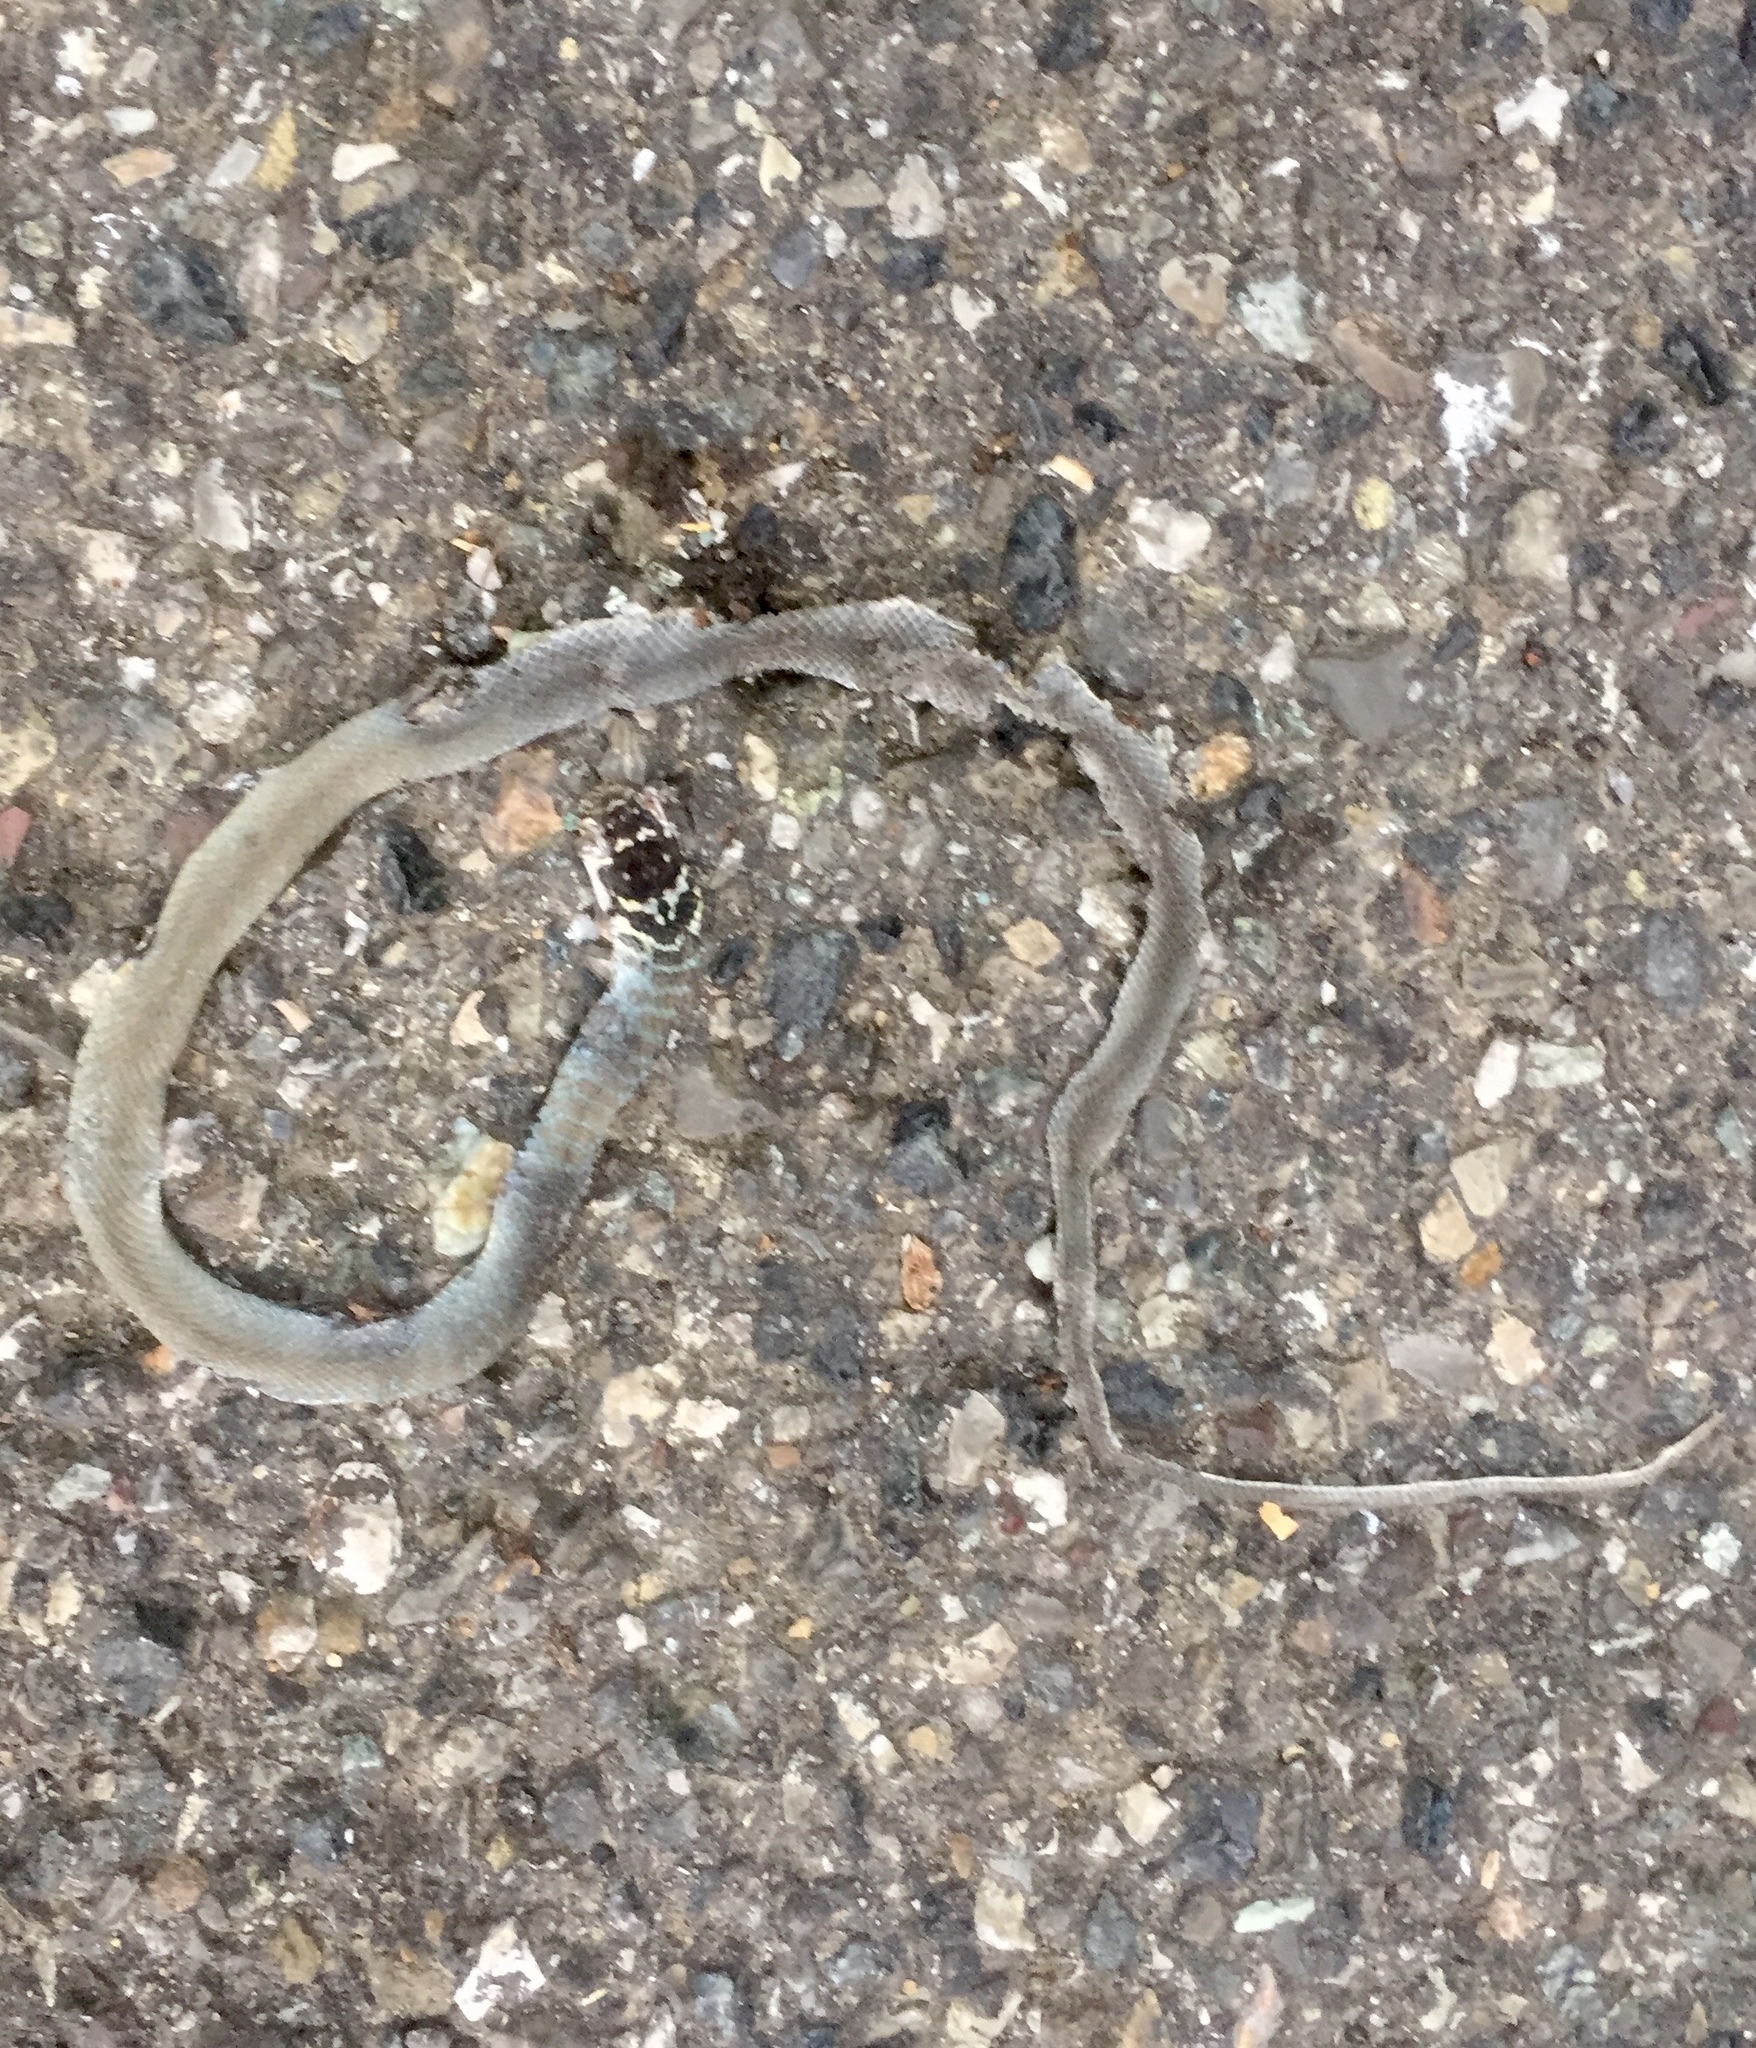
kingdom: Animalia
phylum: Chordata
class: Squamata
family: Colubridae
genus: Hierophis
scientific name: Hierophis viridiflavus
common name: Green whip snake
